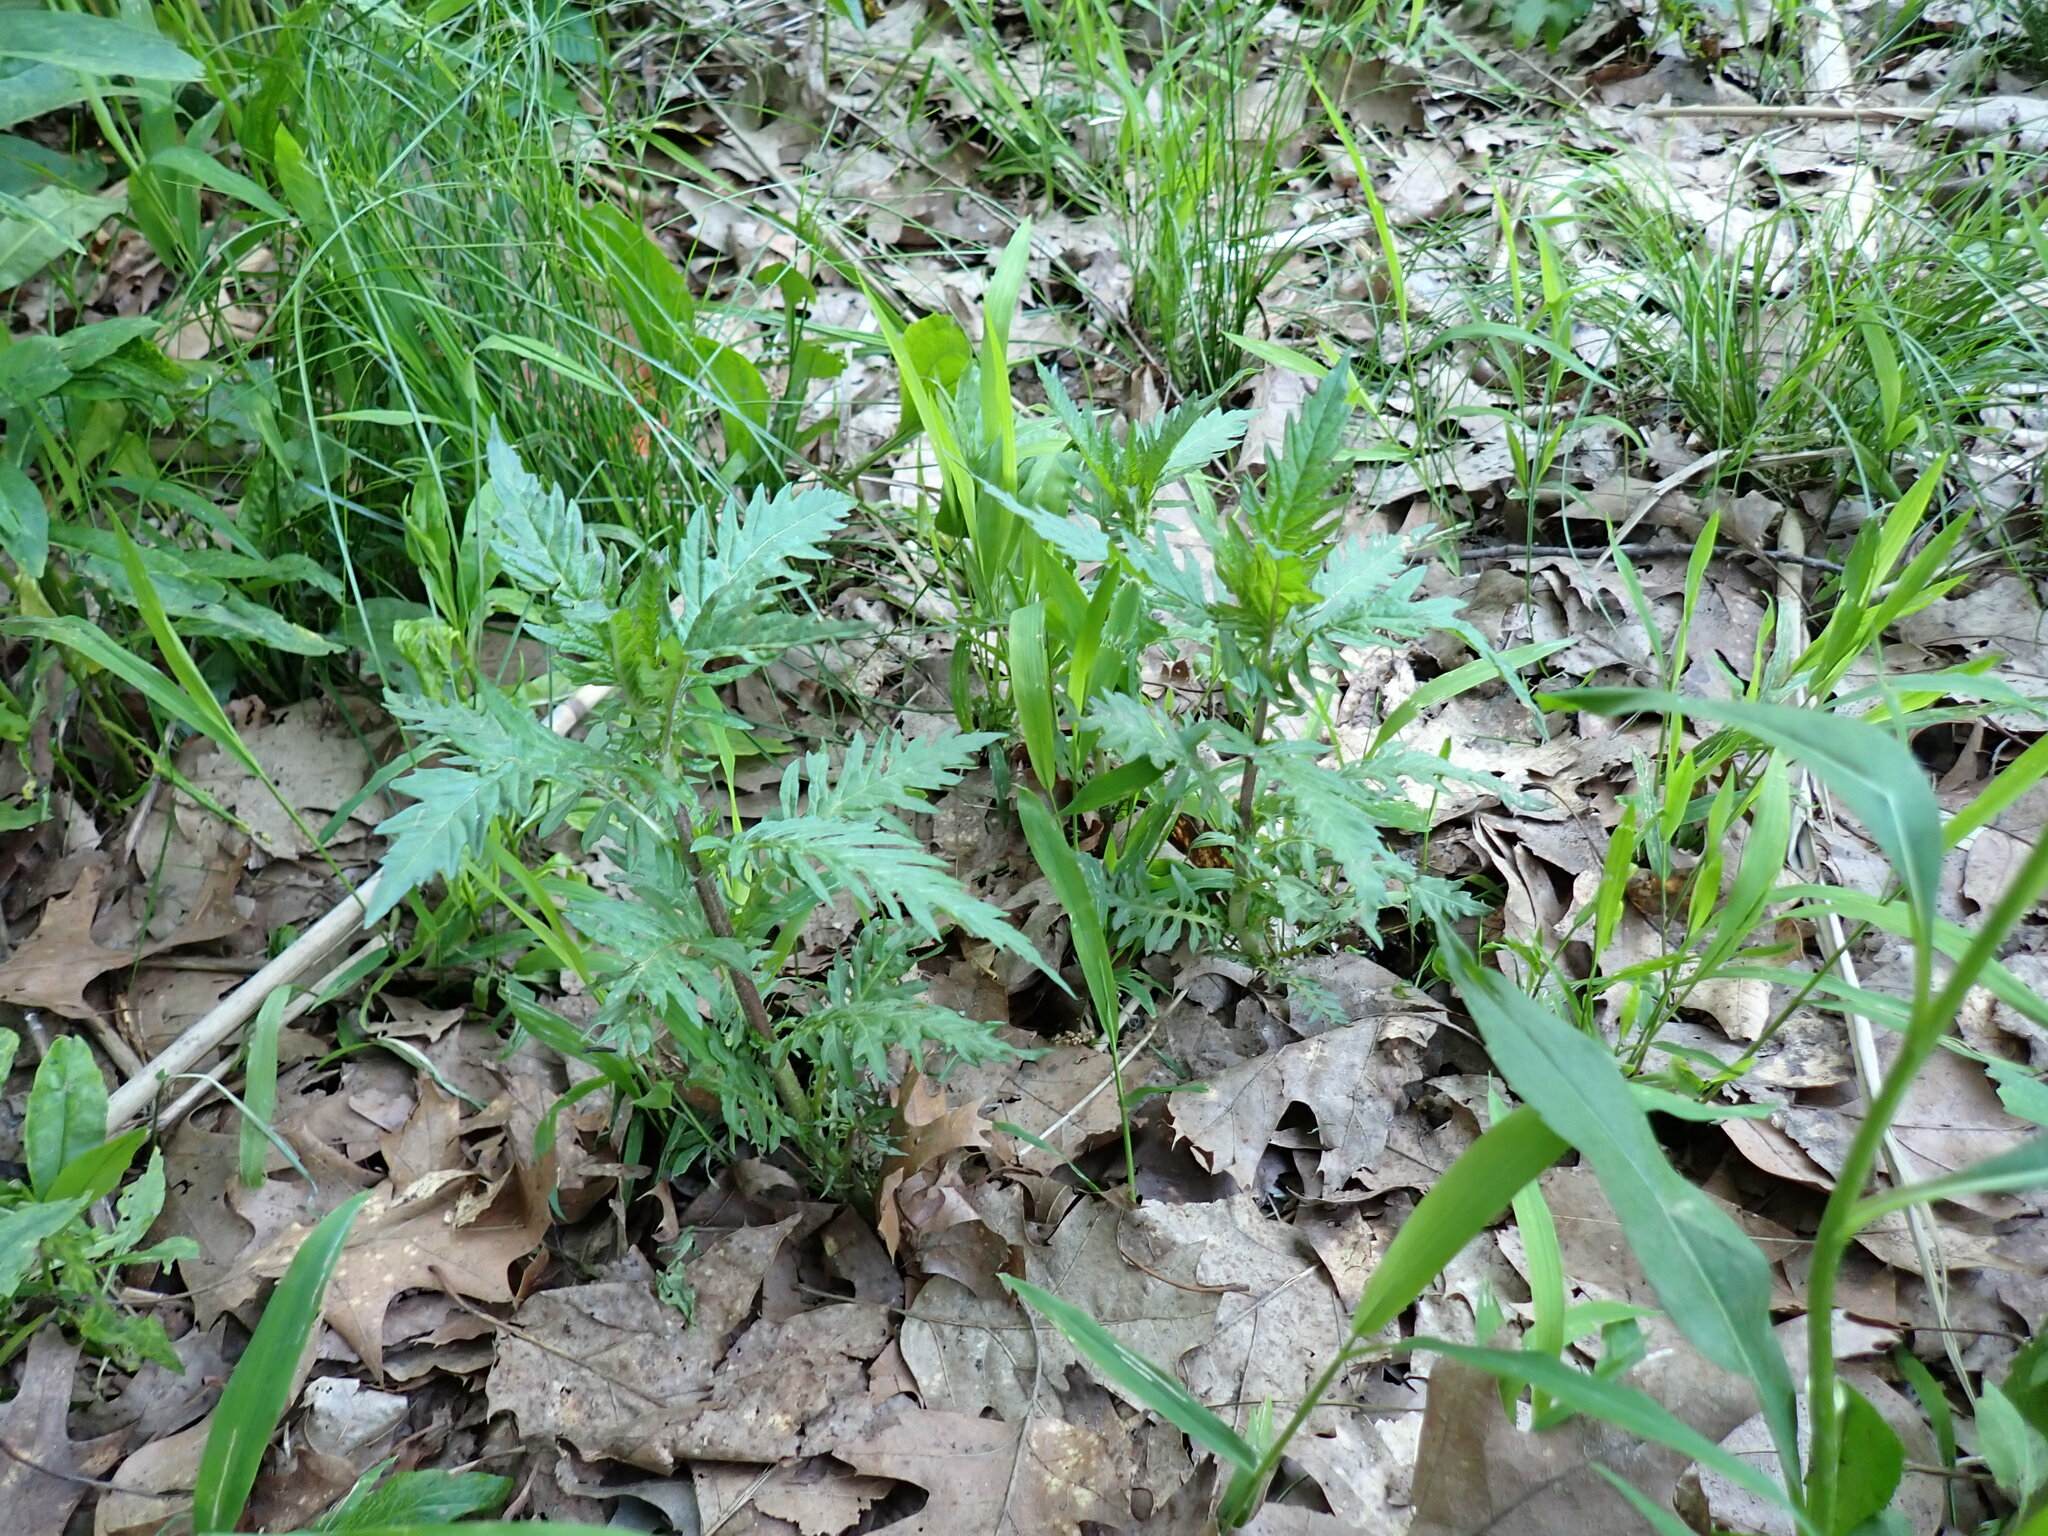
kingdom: Plantae
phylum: Tracheophyta
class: Magnoliopsida
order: Lamiales
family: Lamiaceae
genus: Lycopus
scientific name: Lycopus americanus
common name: American bugleweed
